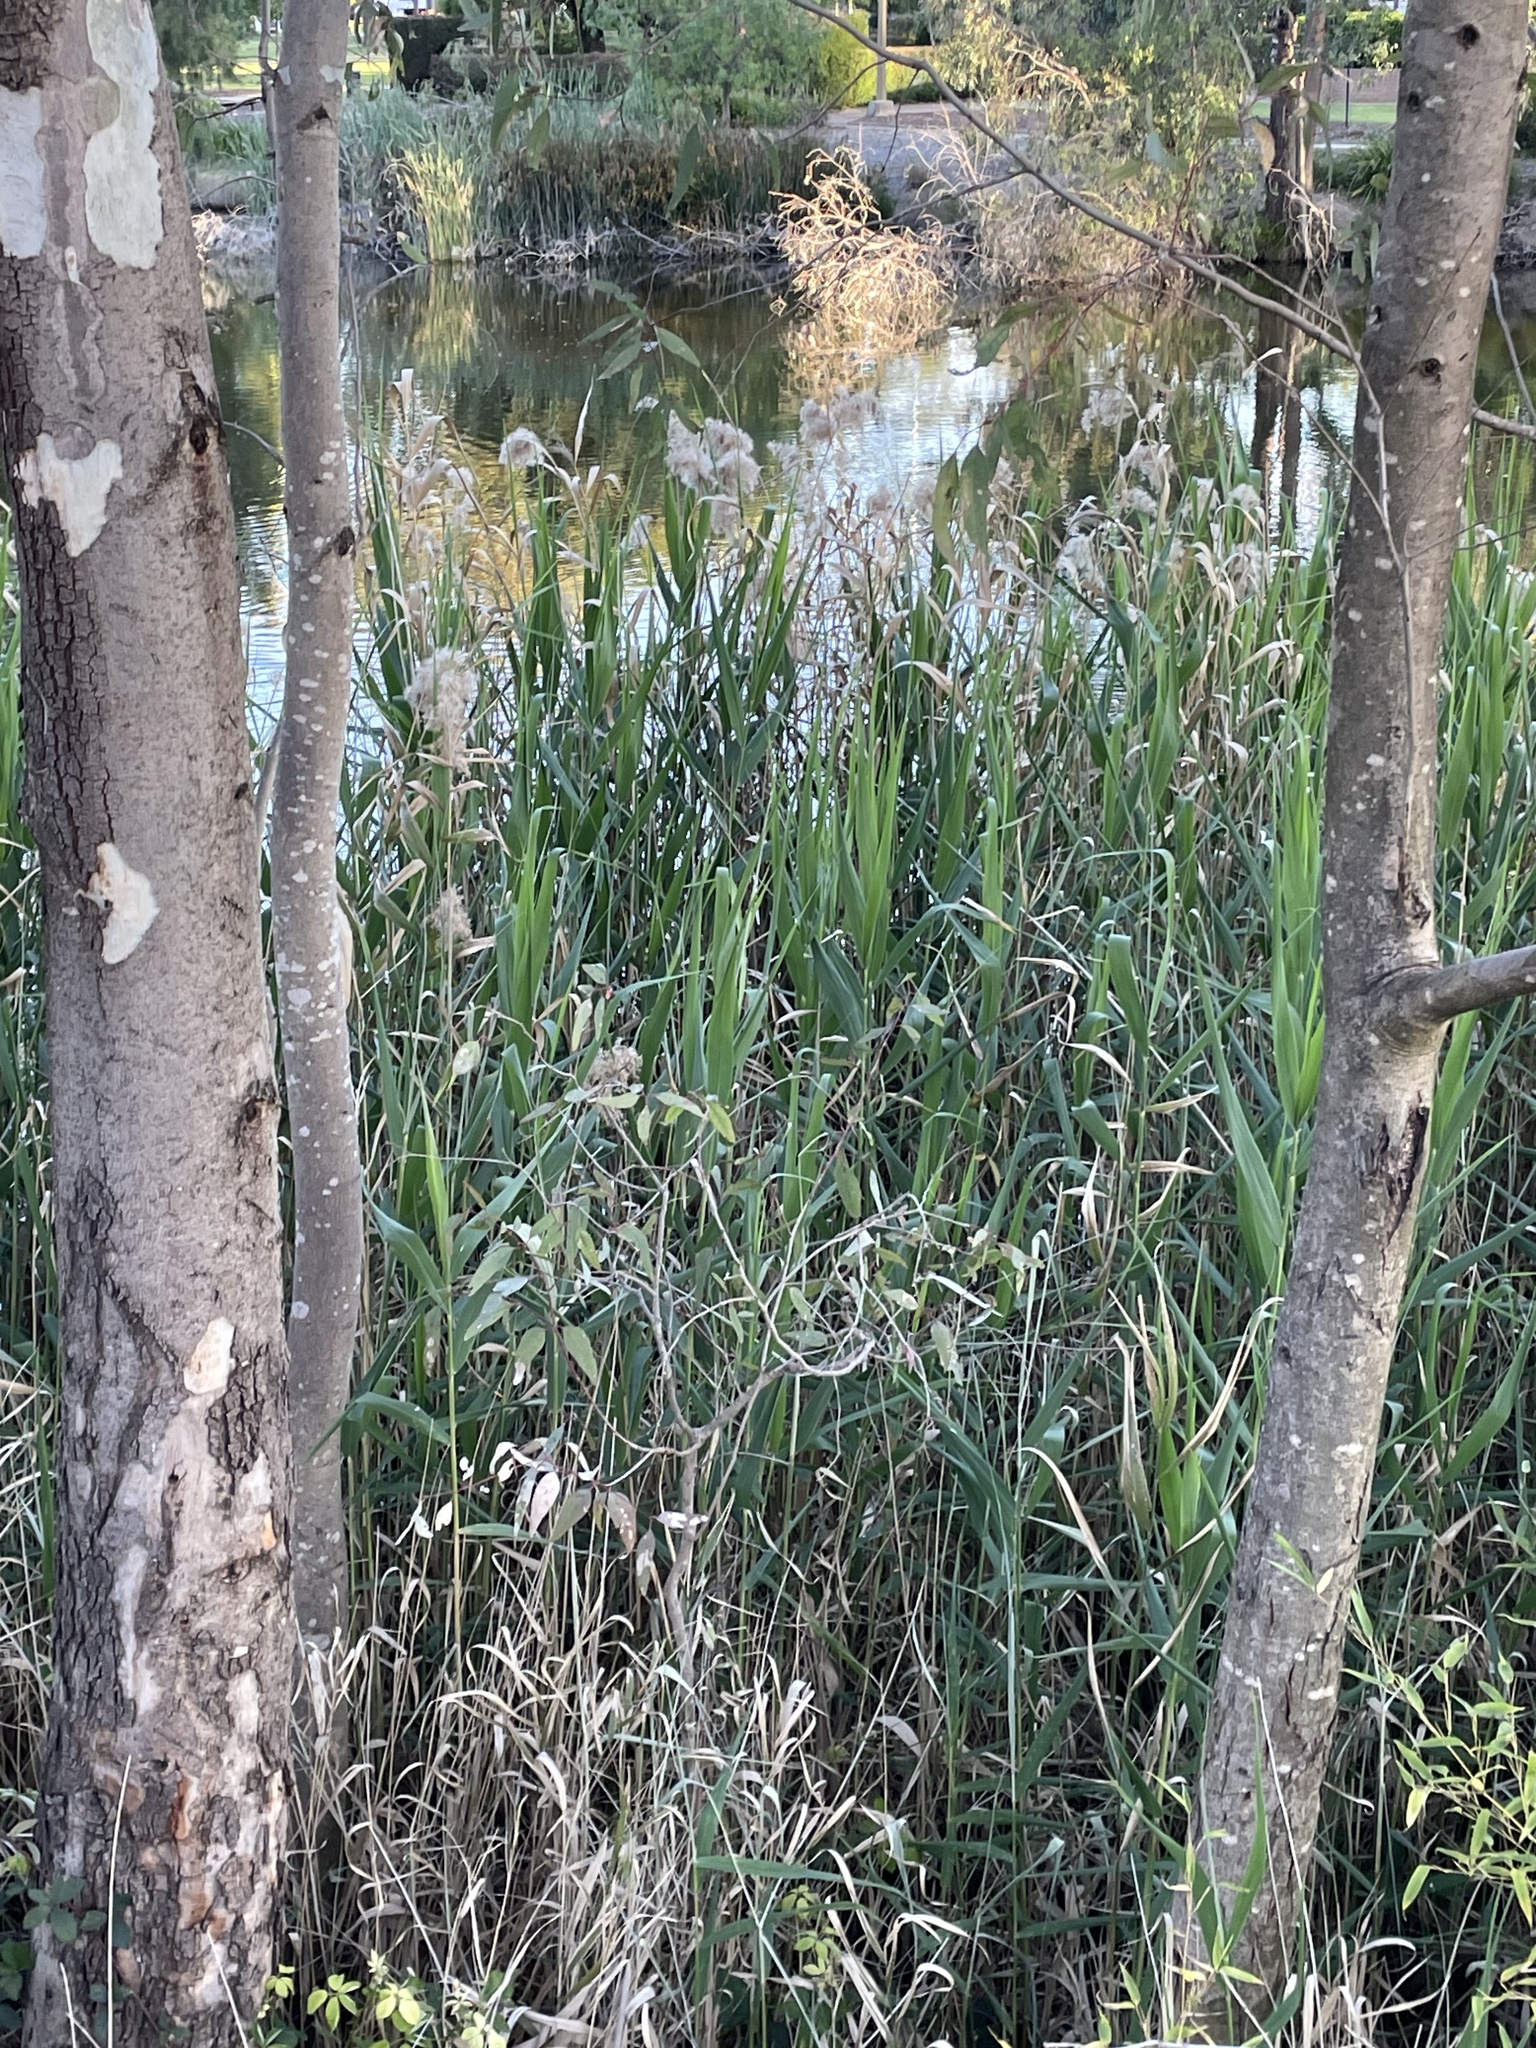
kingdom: Plantae
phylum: Tracheophyta
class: Liliopsida
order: Poales
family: Poaceae
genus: Phragmites
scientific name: Phragmites australis
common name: Common reed
